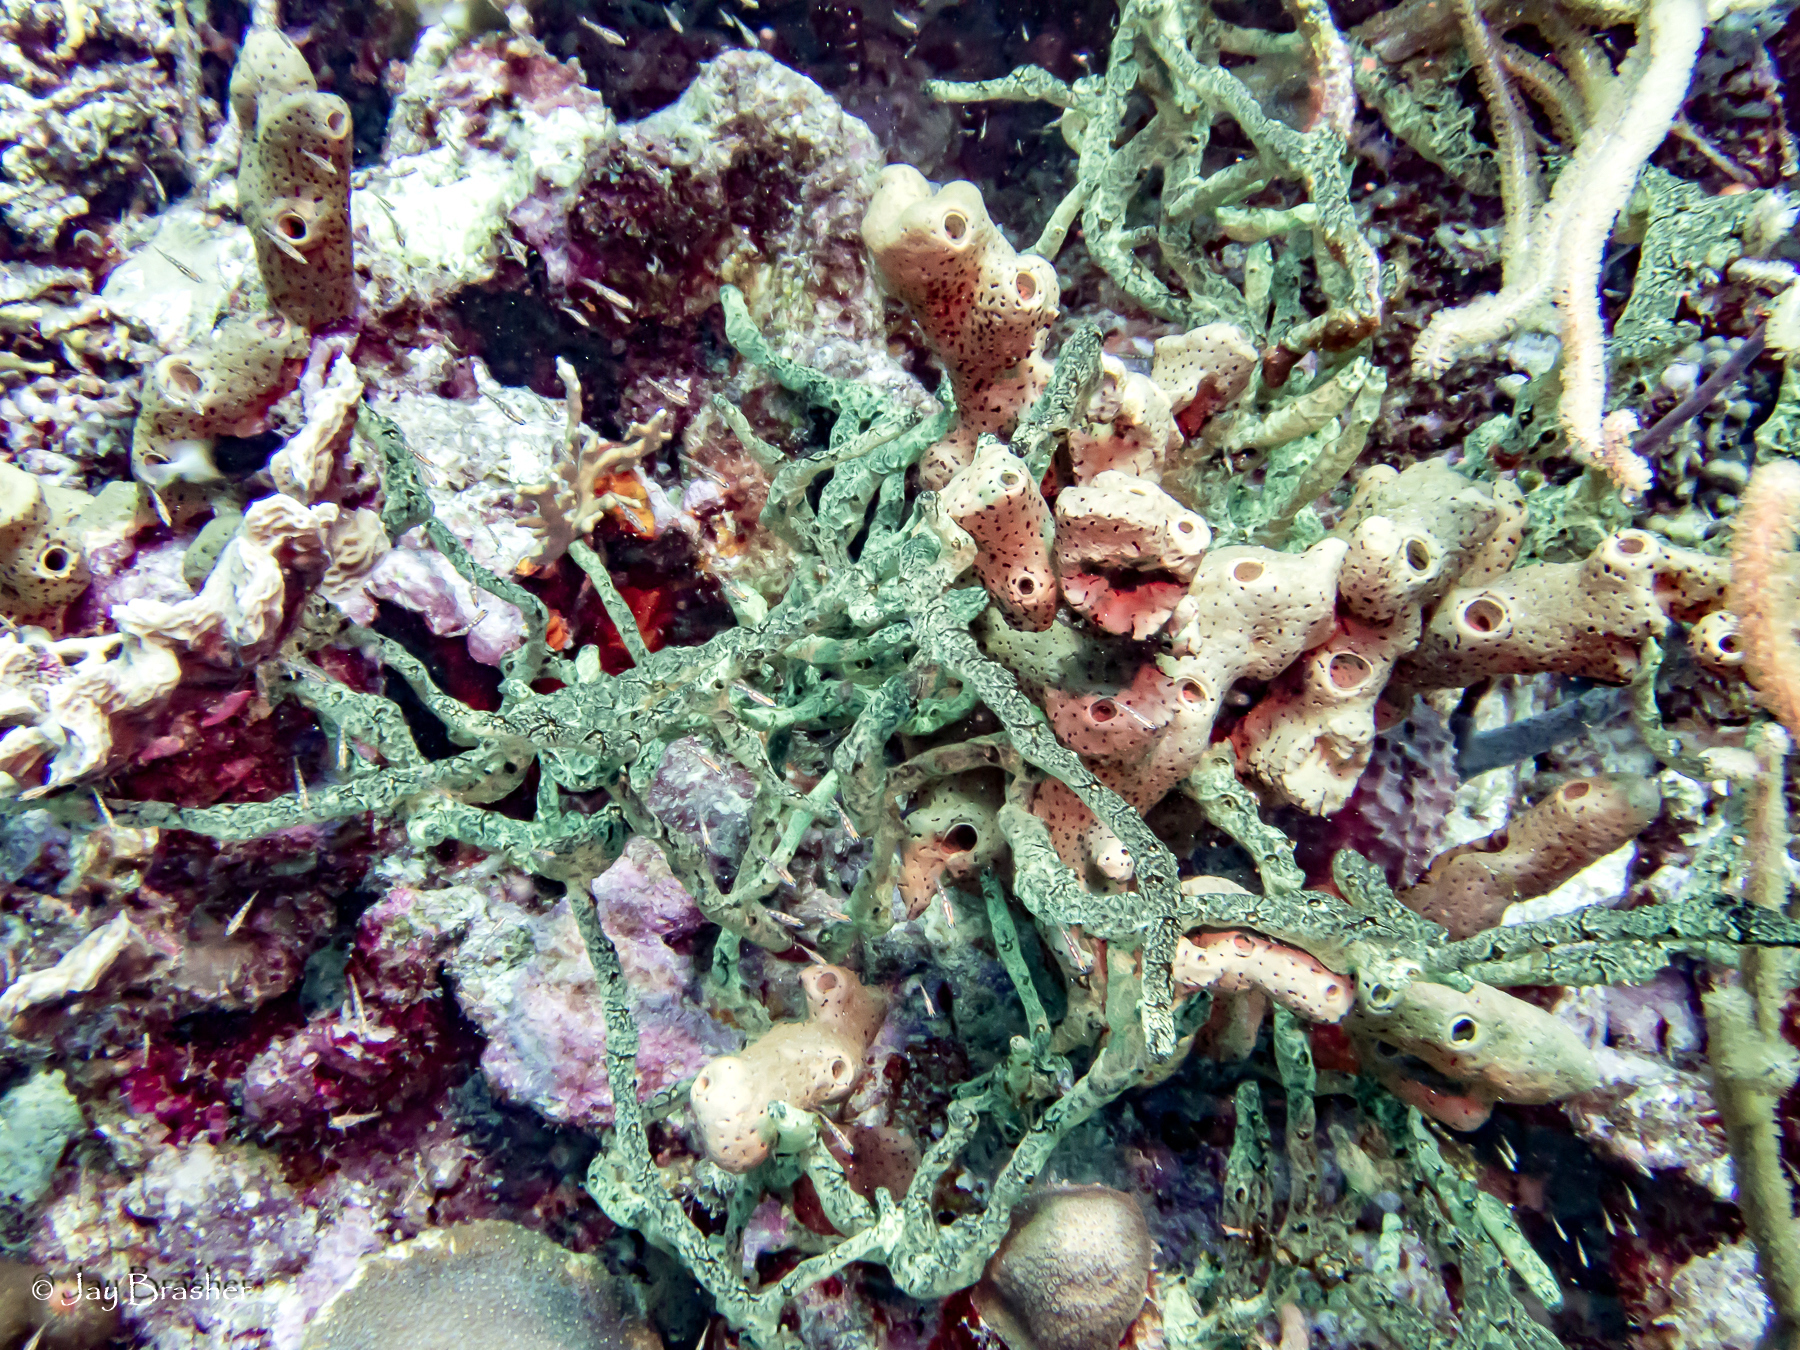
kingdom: Animalia
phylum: Porifera
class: Demospongiae
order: Agelasida
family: Agelasidae
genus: Agelas
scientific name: Agelas conifera
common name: Brown tube sponge
